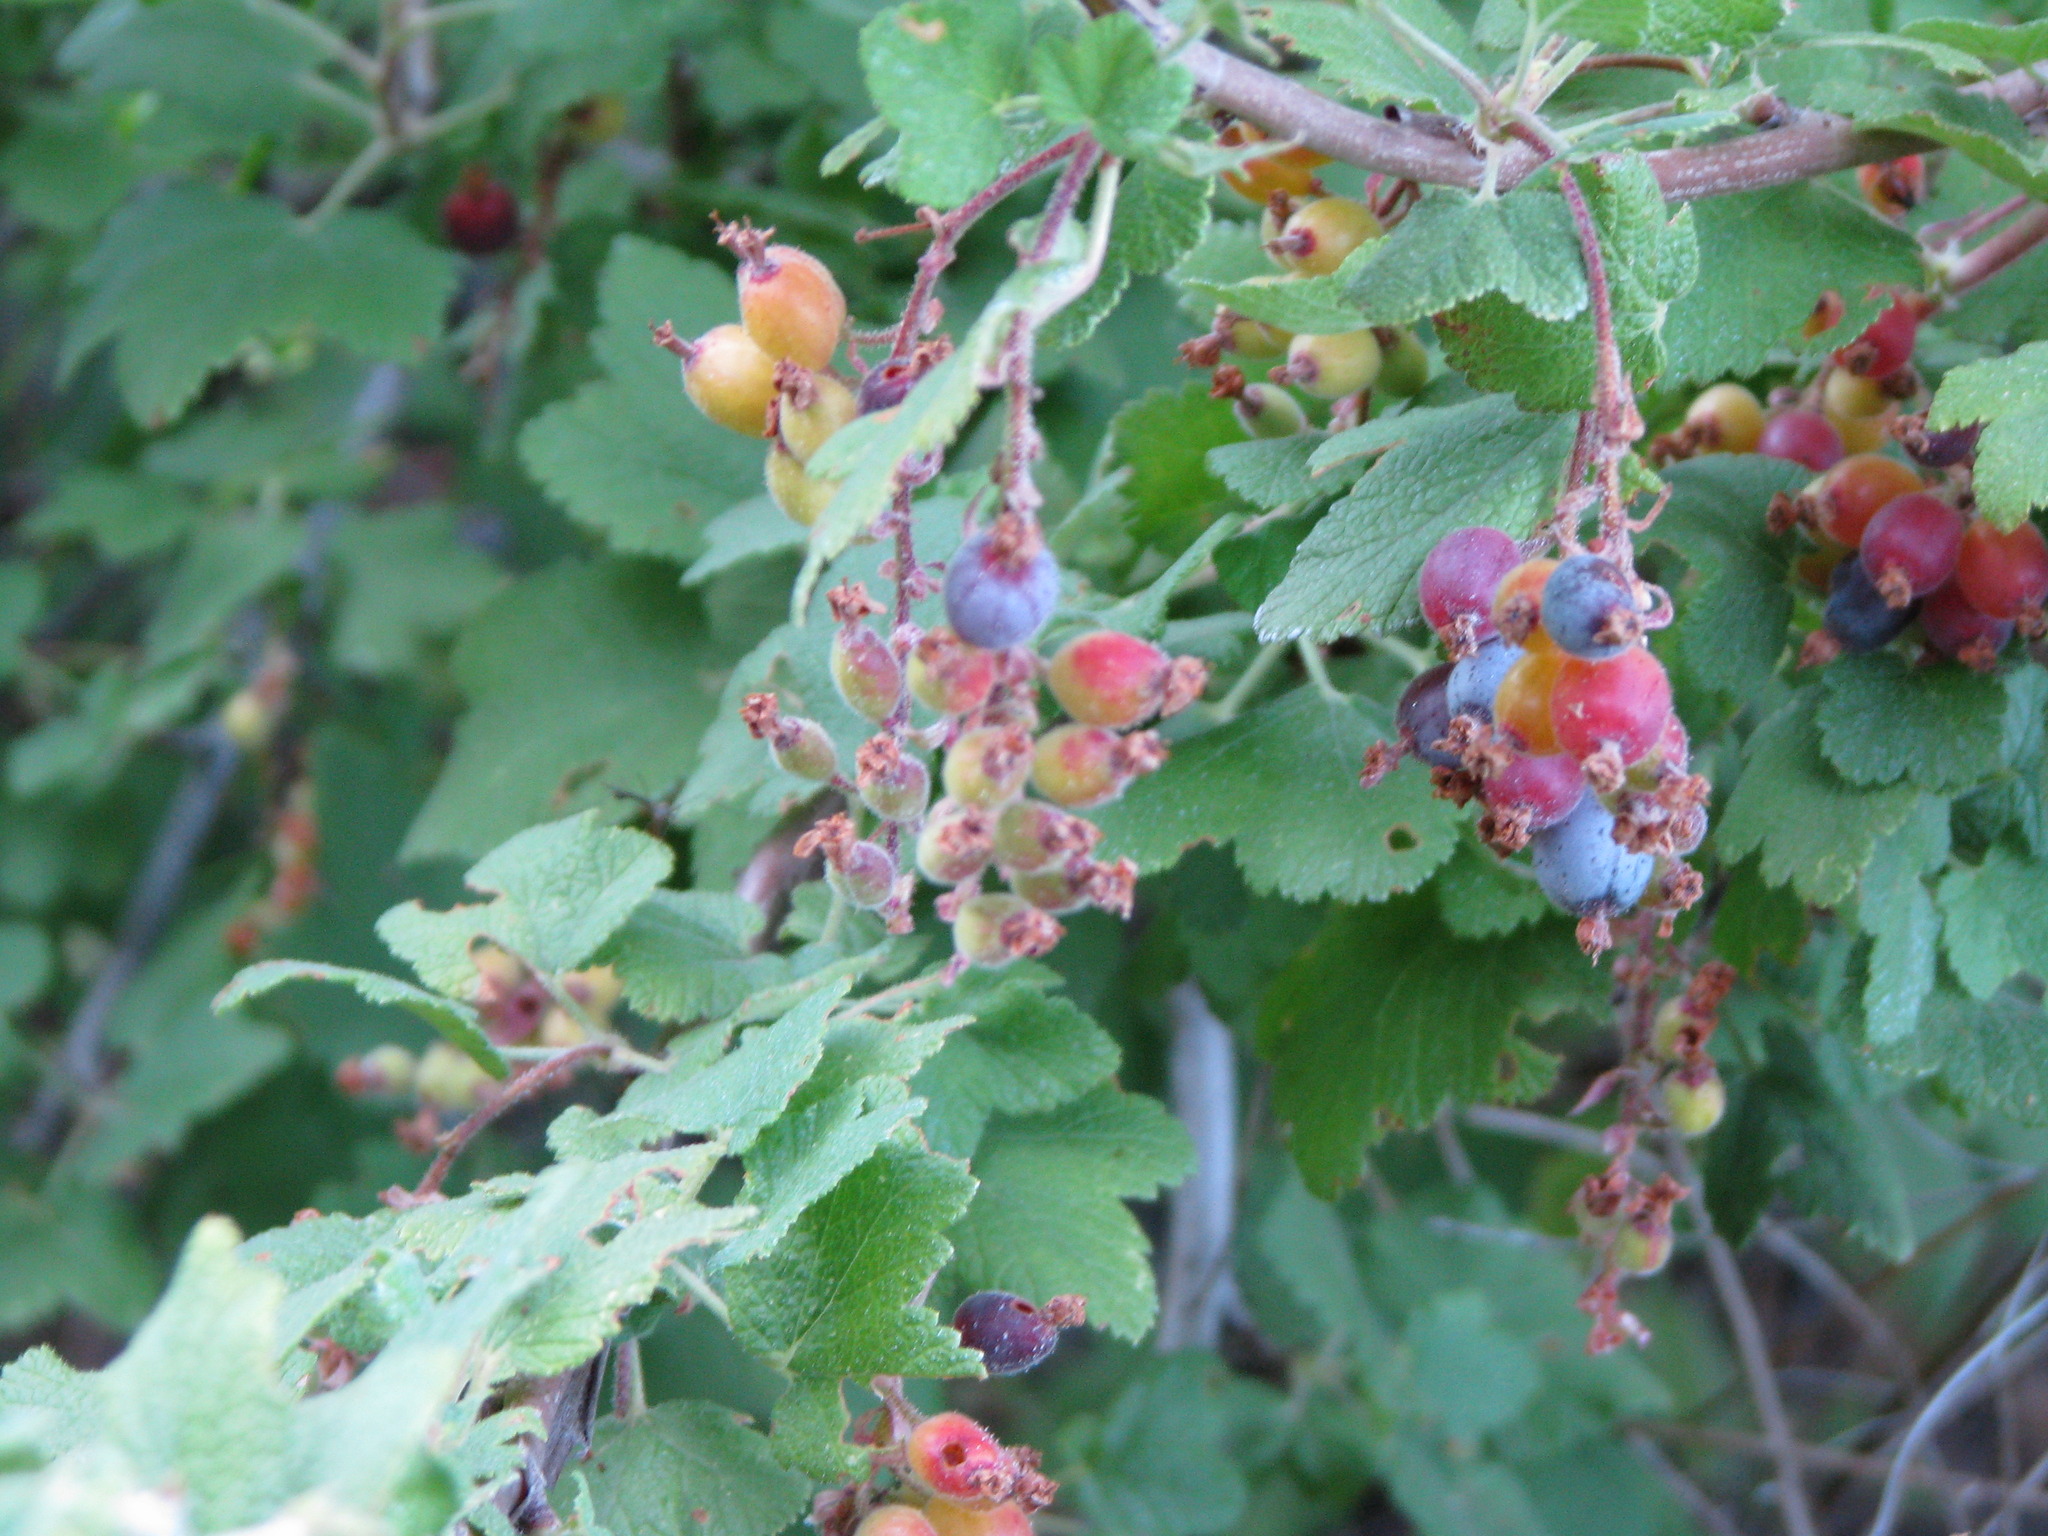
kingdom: Plantae
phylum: Tracheophyta
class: Magnoliopsida
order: Saxifragales
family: Grossulariaceae
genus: Ribes
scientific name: Ribes malvaceum
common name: Chaparral currant
